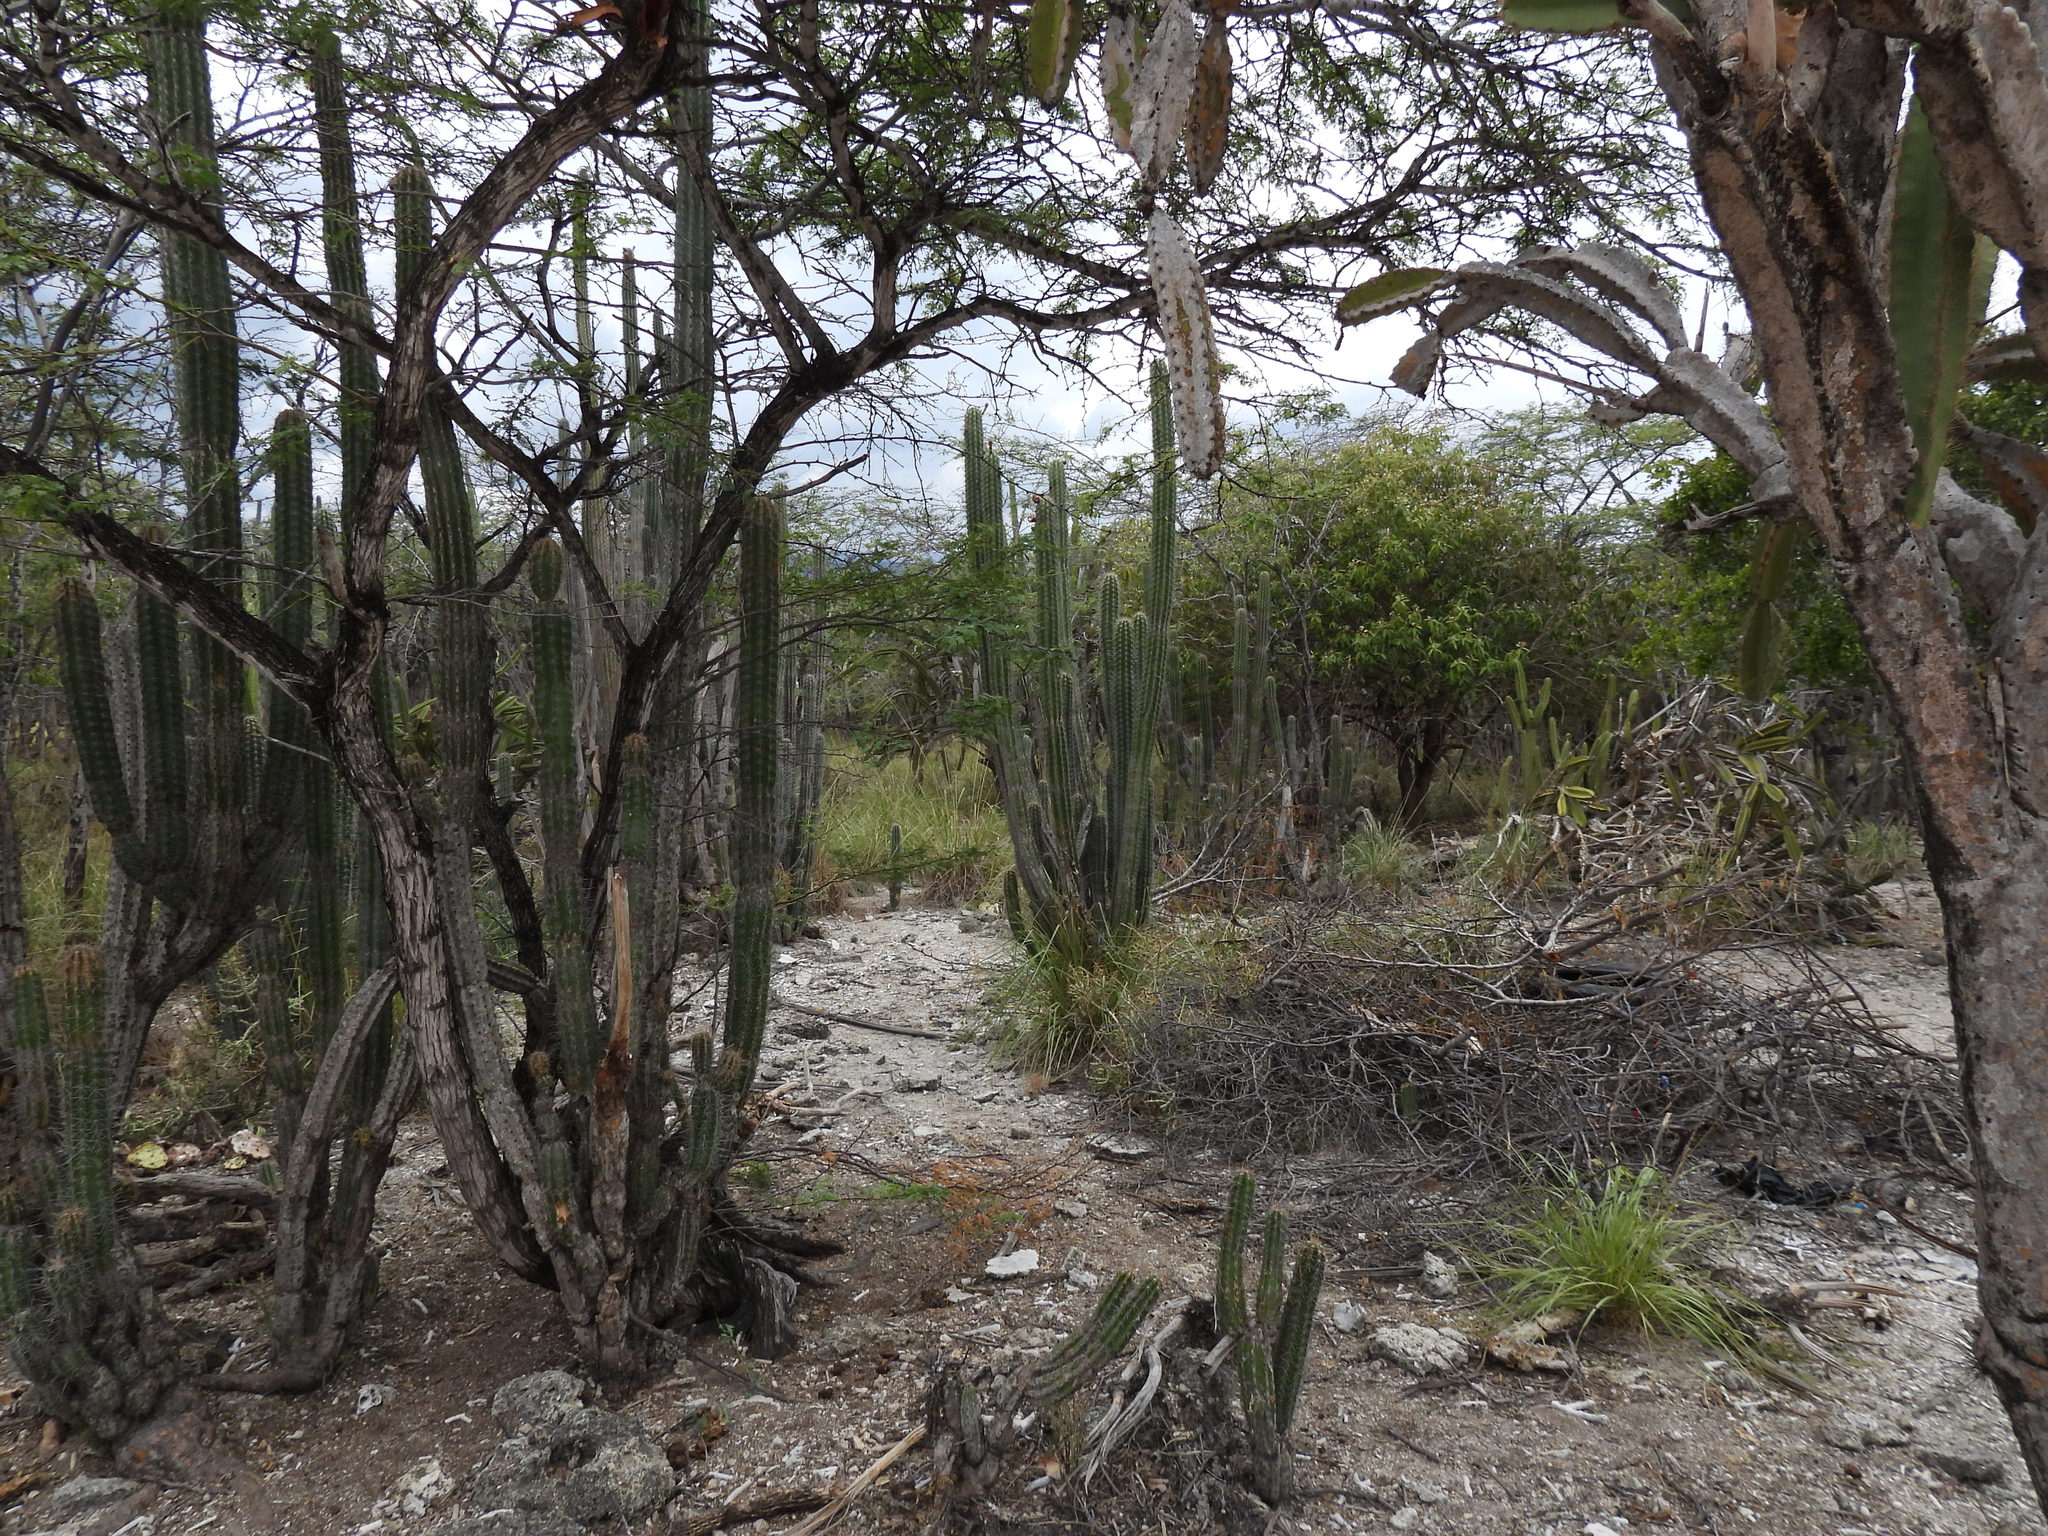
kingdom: Plantae
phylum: Tracheophyta
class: Magnoliopsida
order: Caryophyllales
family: Cactaceae
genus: Pilosocereus
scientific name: Pilosocereus polygonus
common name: Key tree cactus
